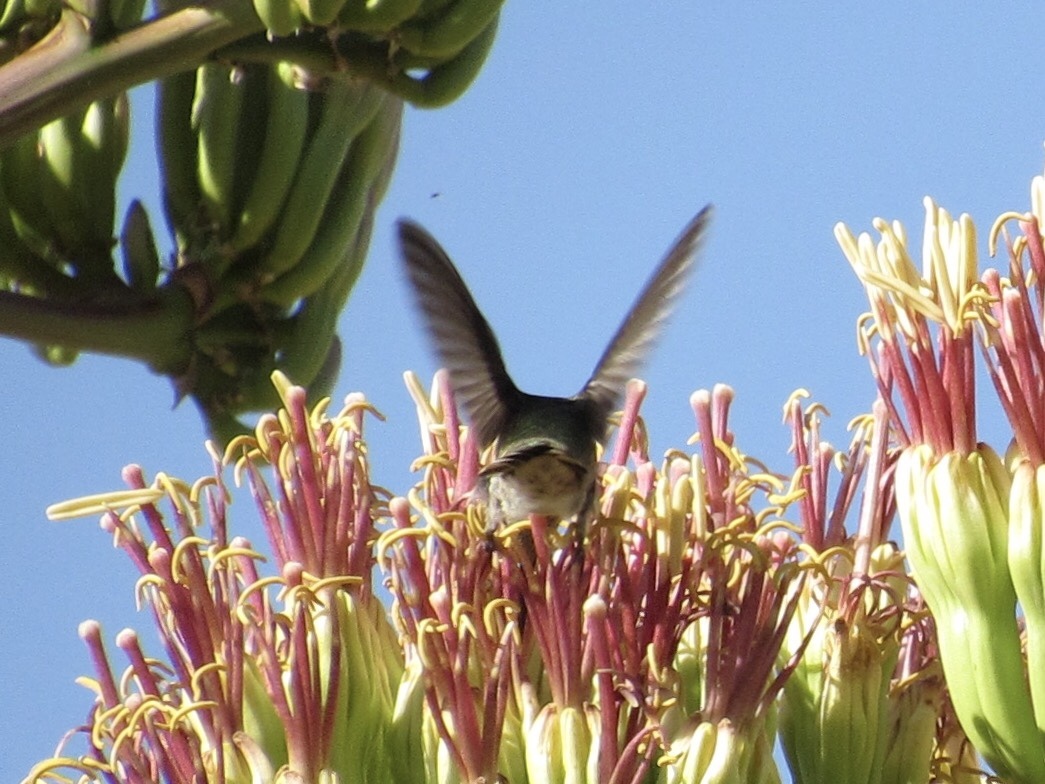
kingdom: Animalia
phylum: Chordata
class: Aves
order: Apodiformes
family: Trochilidae
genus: Cynanthus
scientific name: Cynanthus latirostris
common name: Broad-billed hummingbird
